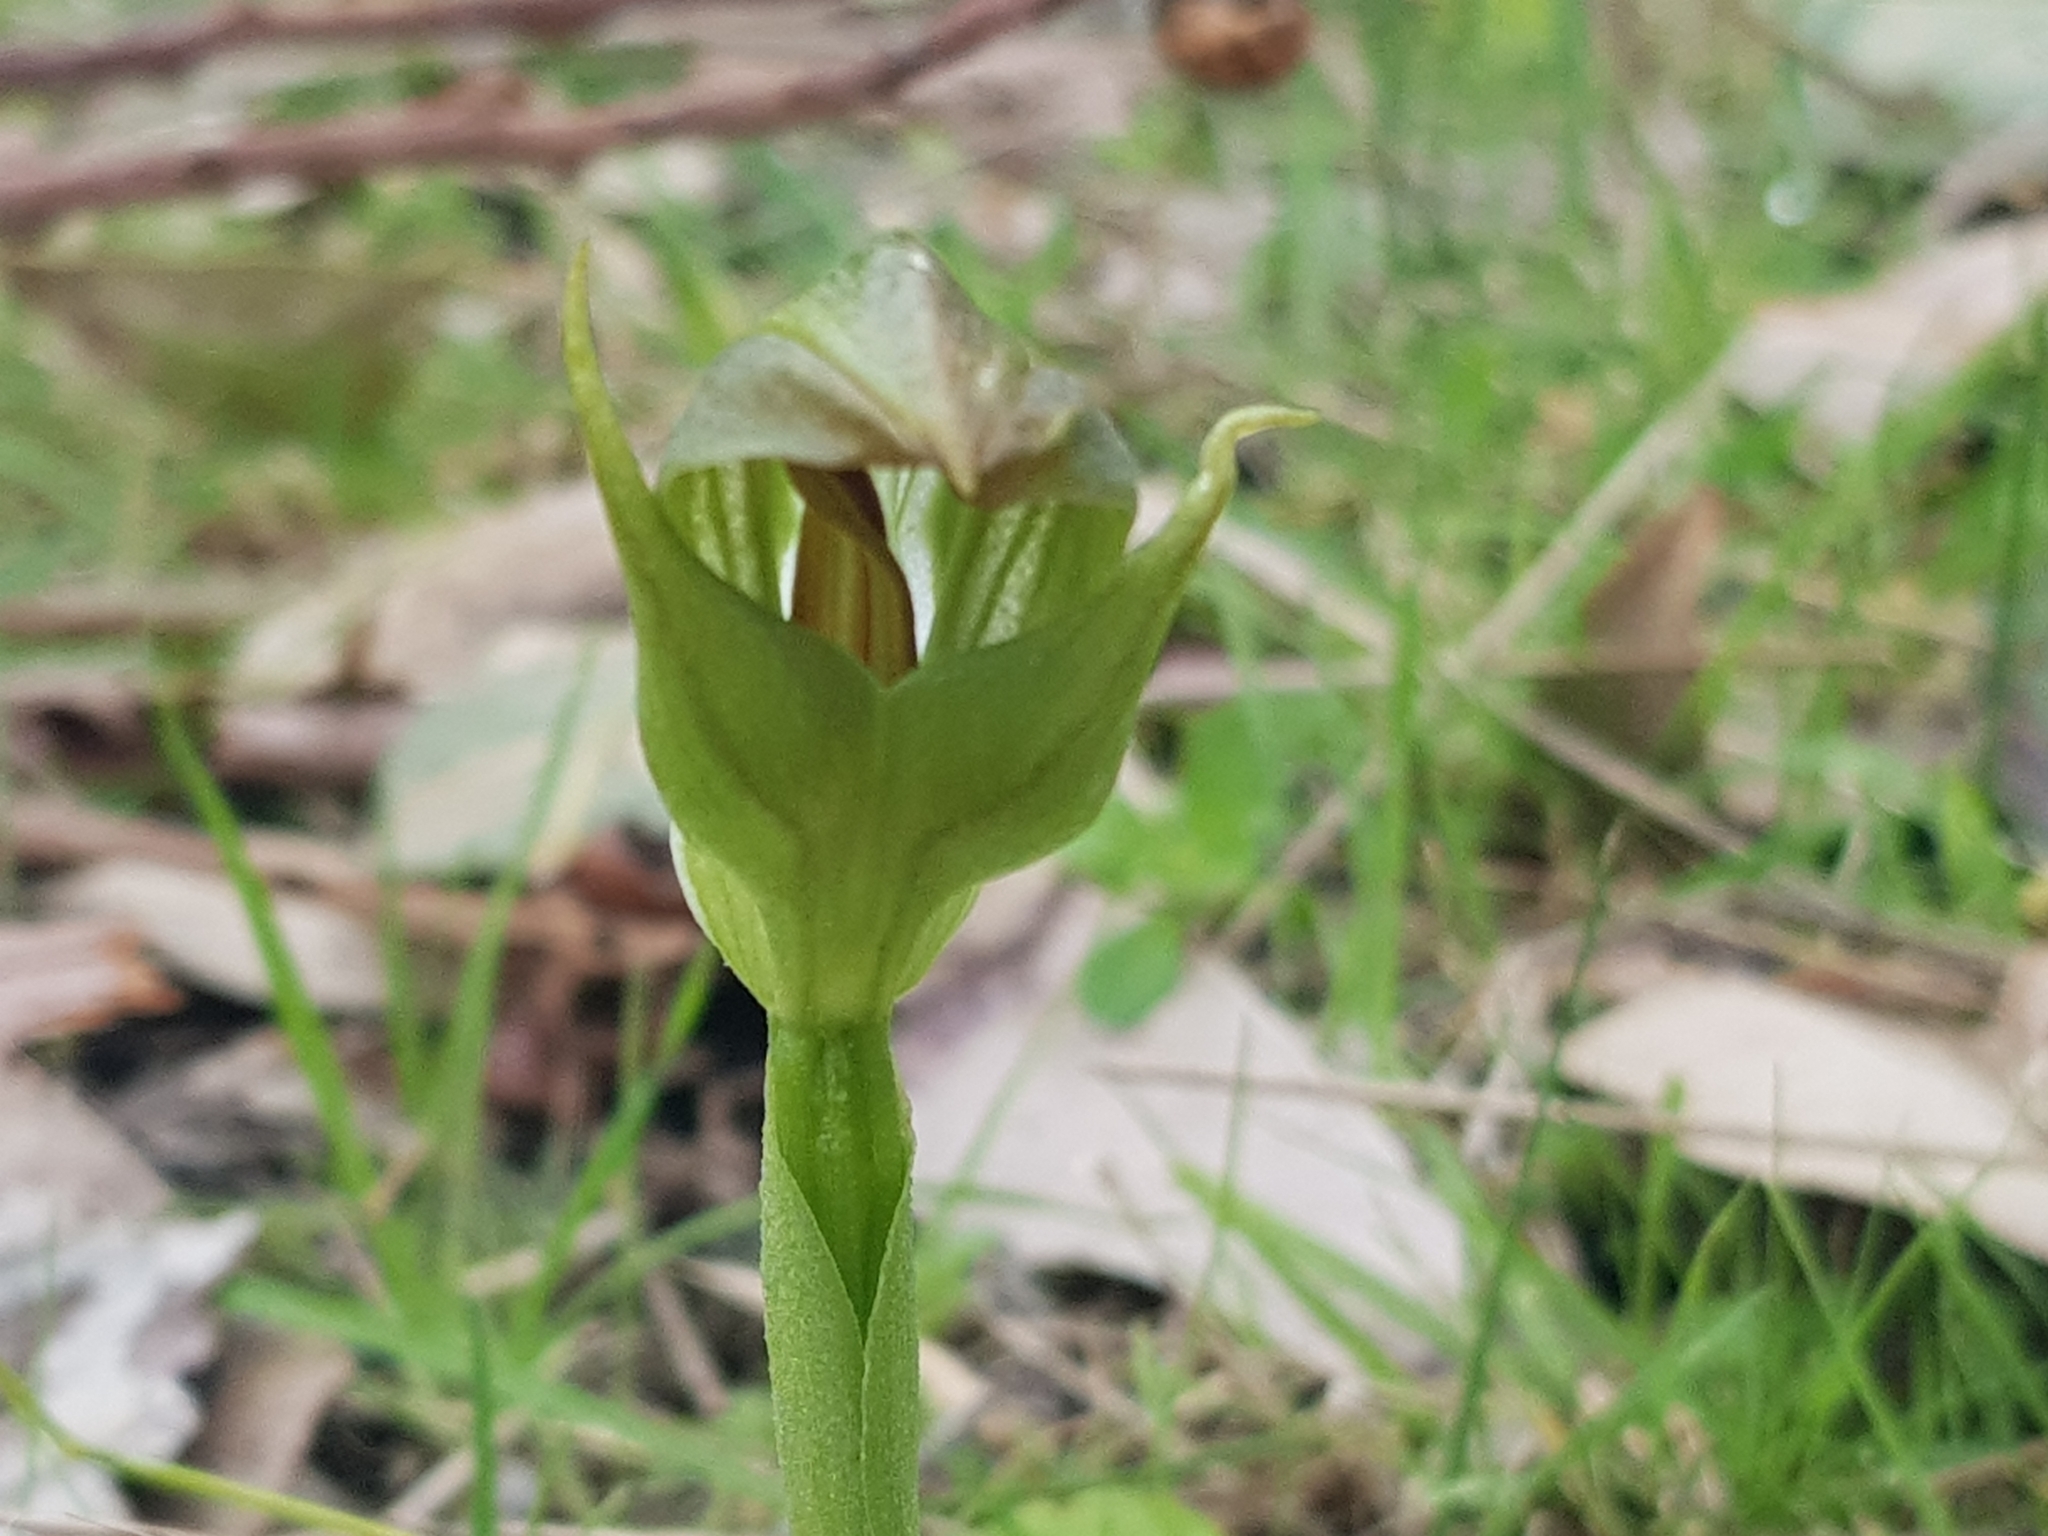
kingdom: Plantae
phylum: Tracheophyta
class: Liliopsida
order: Asparagales
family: Orchidaceae
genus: Pterostylis
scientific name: Pterostylis curta
